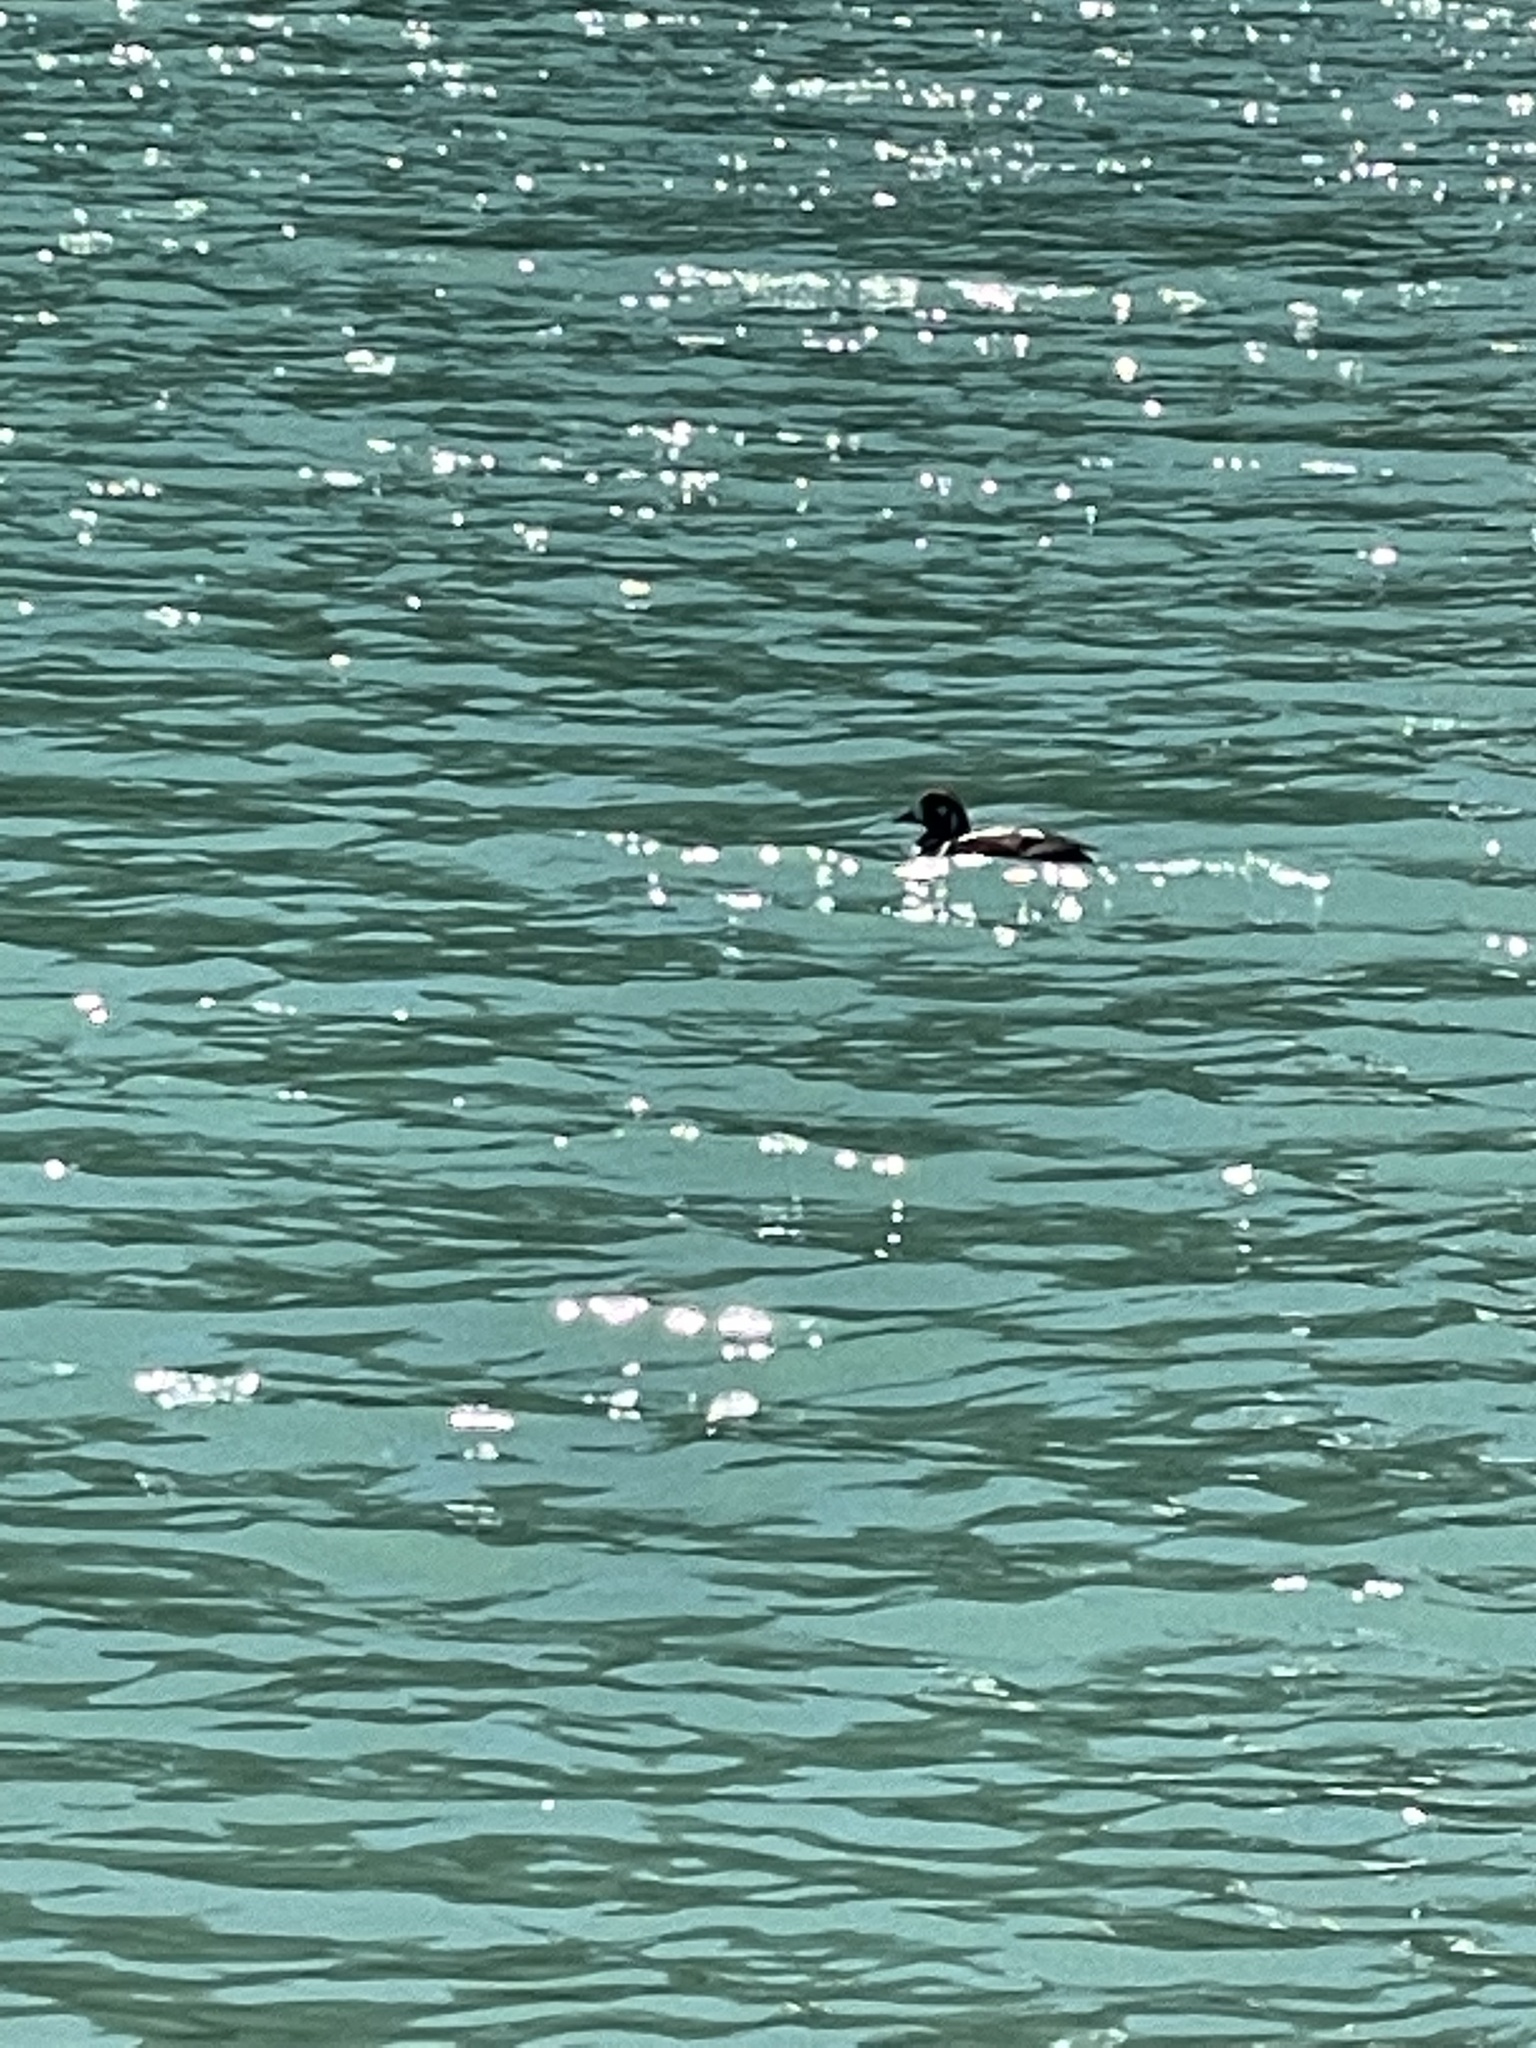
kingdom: Animalia
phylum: Chordata
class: Aves
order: Anseriformes
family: Anatidae
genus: Histrionicus
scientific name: Histrionicus histrionicus
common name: Harlequin duck
